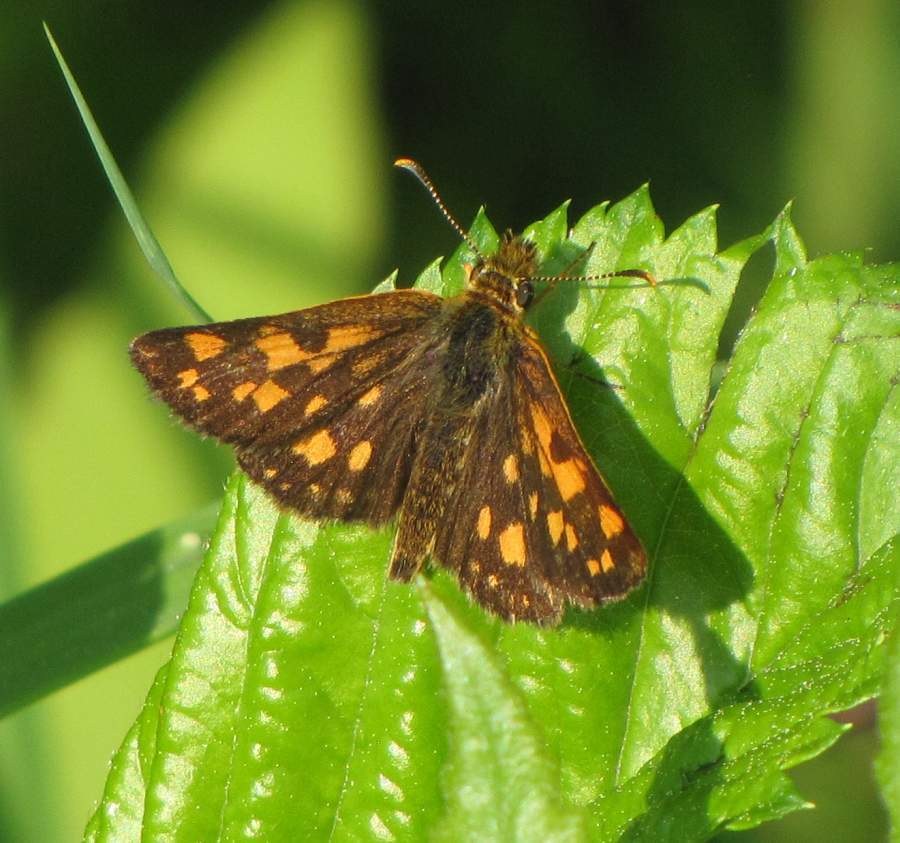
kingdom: Animalia
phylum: Arthropoda
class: Insecta
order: Lepidoptera
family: Hesperiidae
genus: Carterocephalus
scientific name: Carterocephalus mandan
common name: Arctic skipperling
